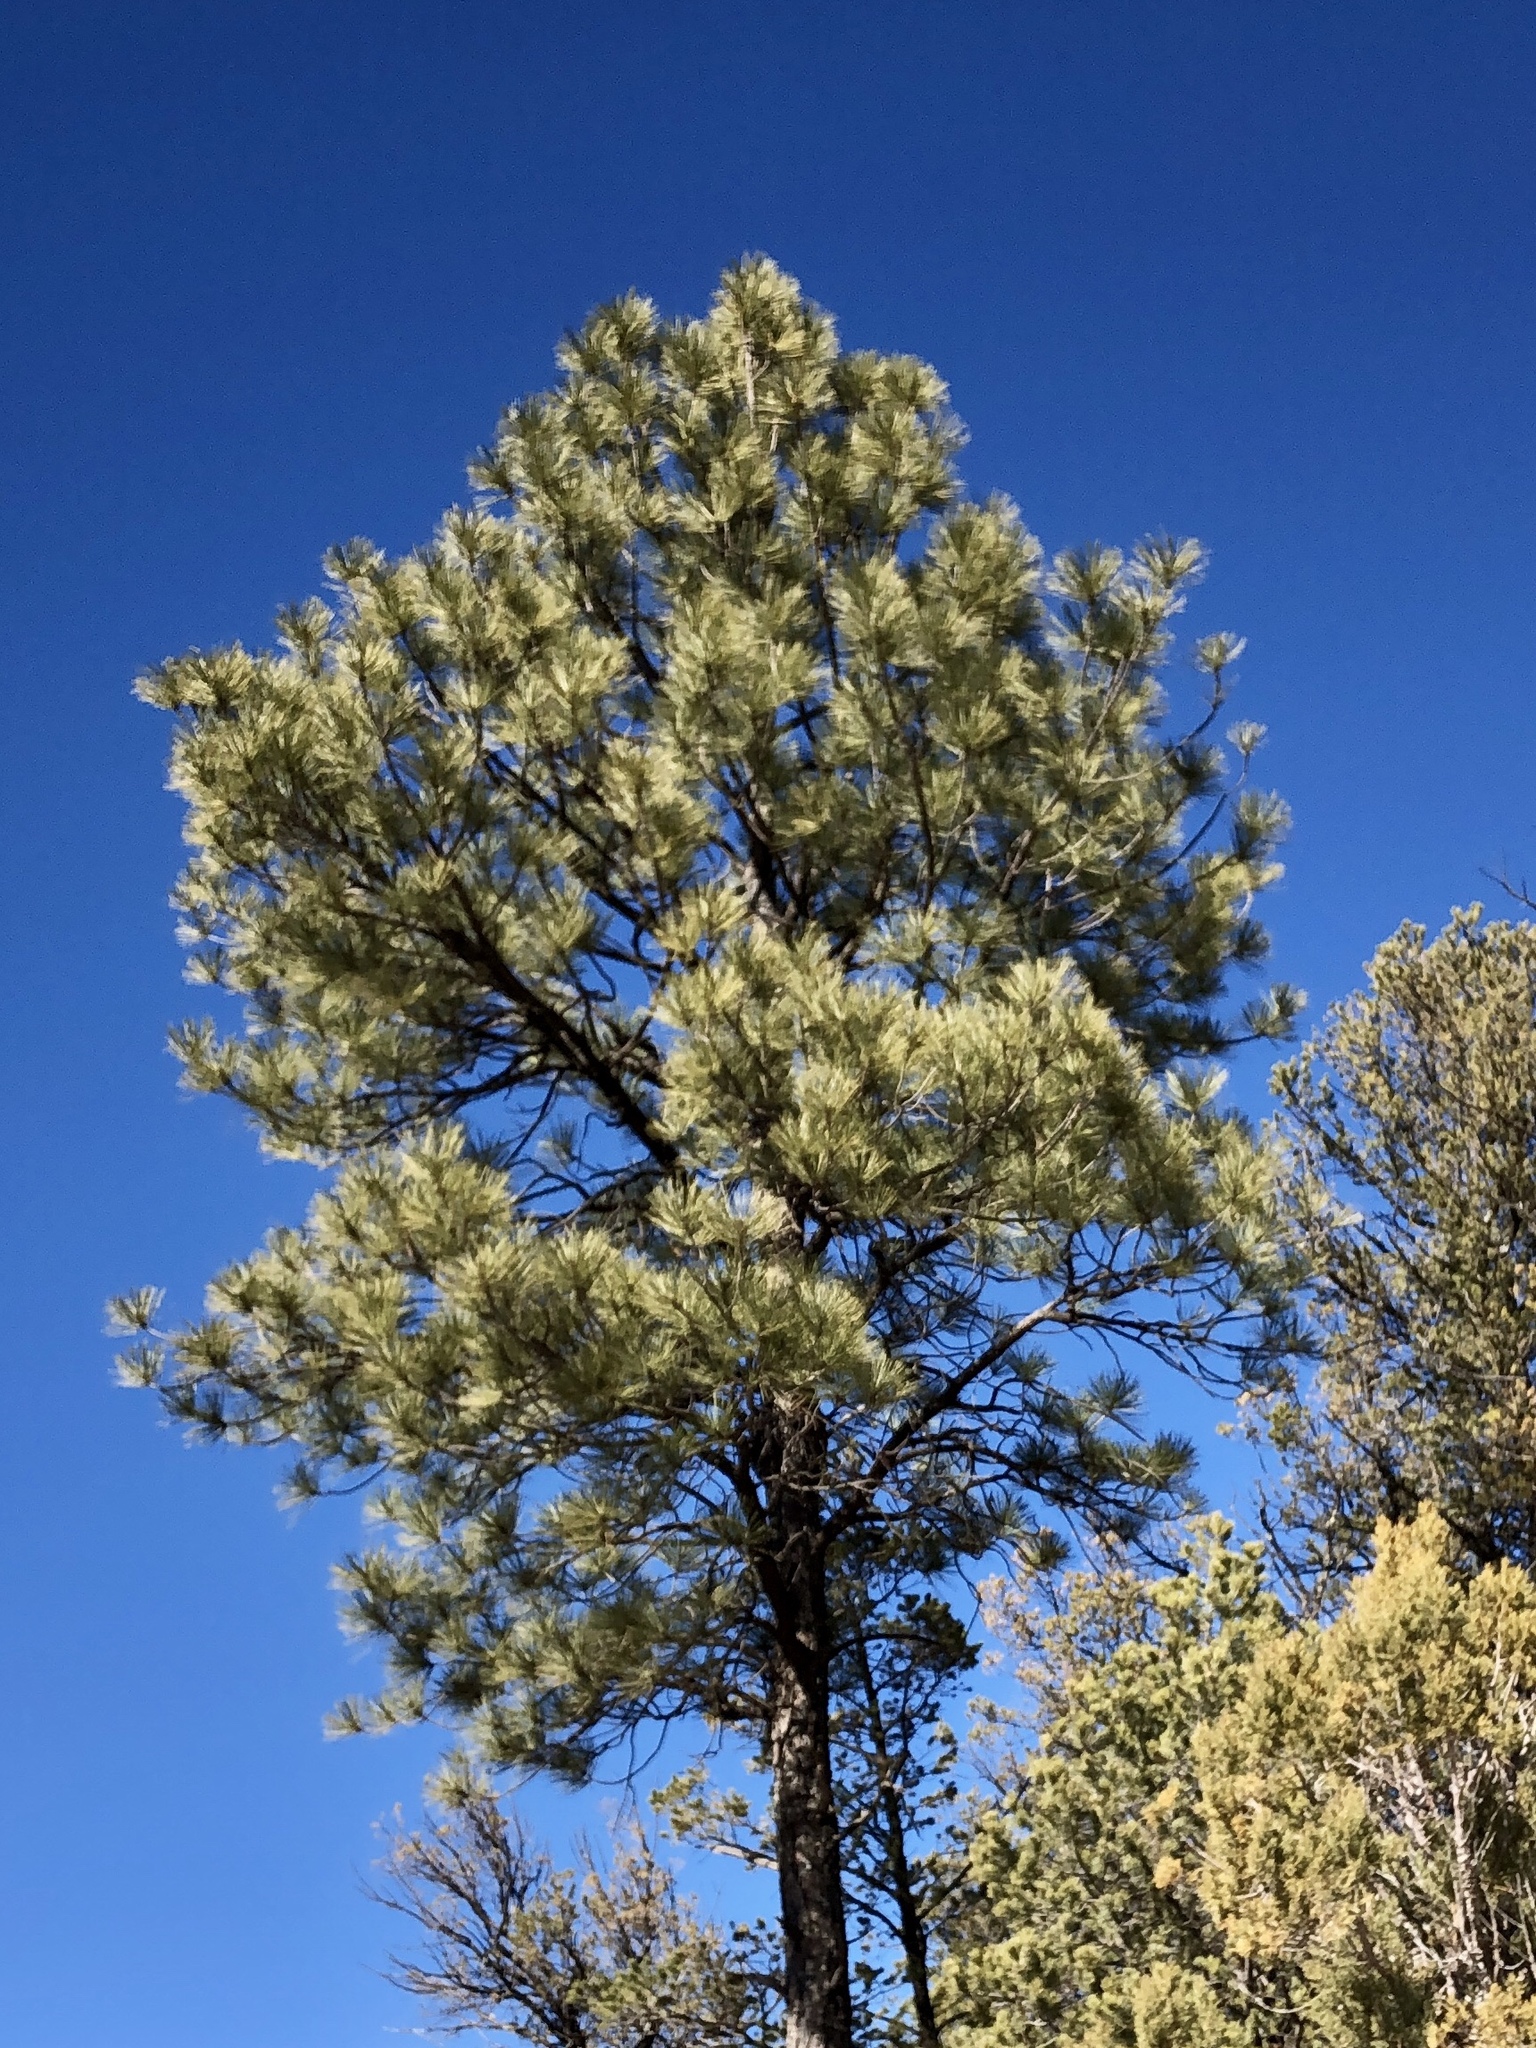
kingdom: Plantae
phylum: Tracheophyta
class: Pinopsida
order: Pinales
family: Pinaceae
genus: Pinus
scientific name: Pinus ponderosa
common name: Western yellow-pine
